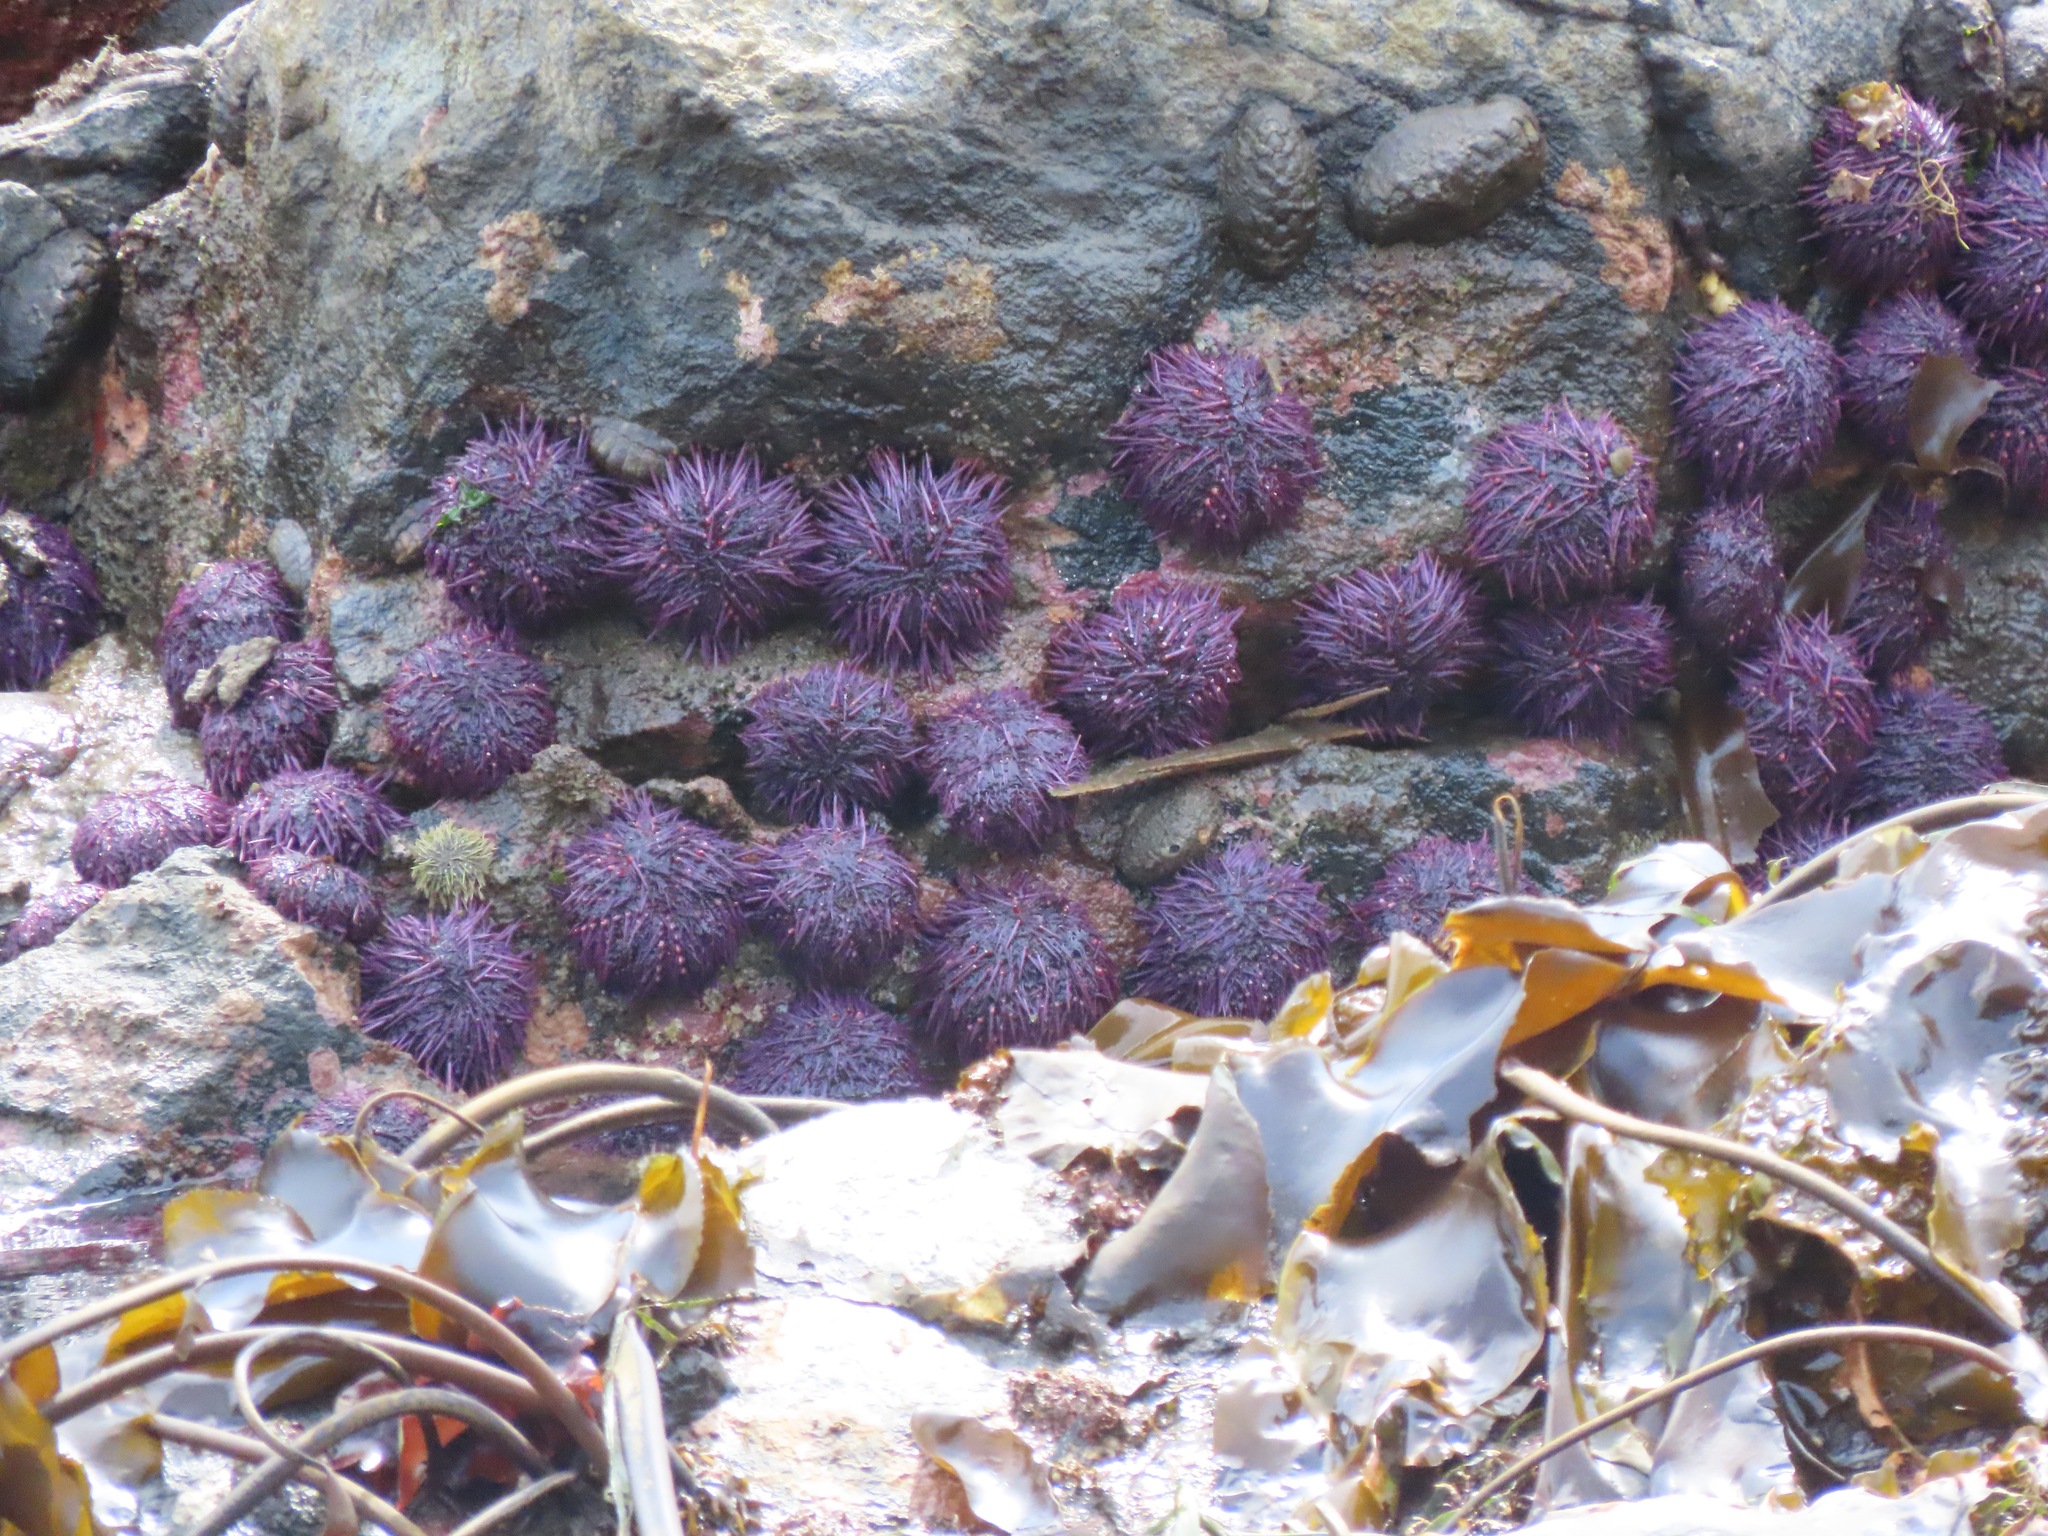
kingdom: Animalia
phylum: Echinodermata
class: Echinoidea
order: Camarodonta
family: Strongylocentrotidae
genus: Strongylocentrotus
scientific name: Strongylocentrotus purpuratus
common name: Purple sea urchin
